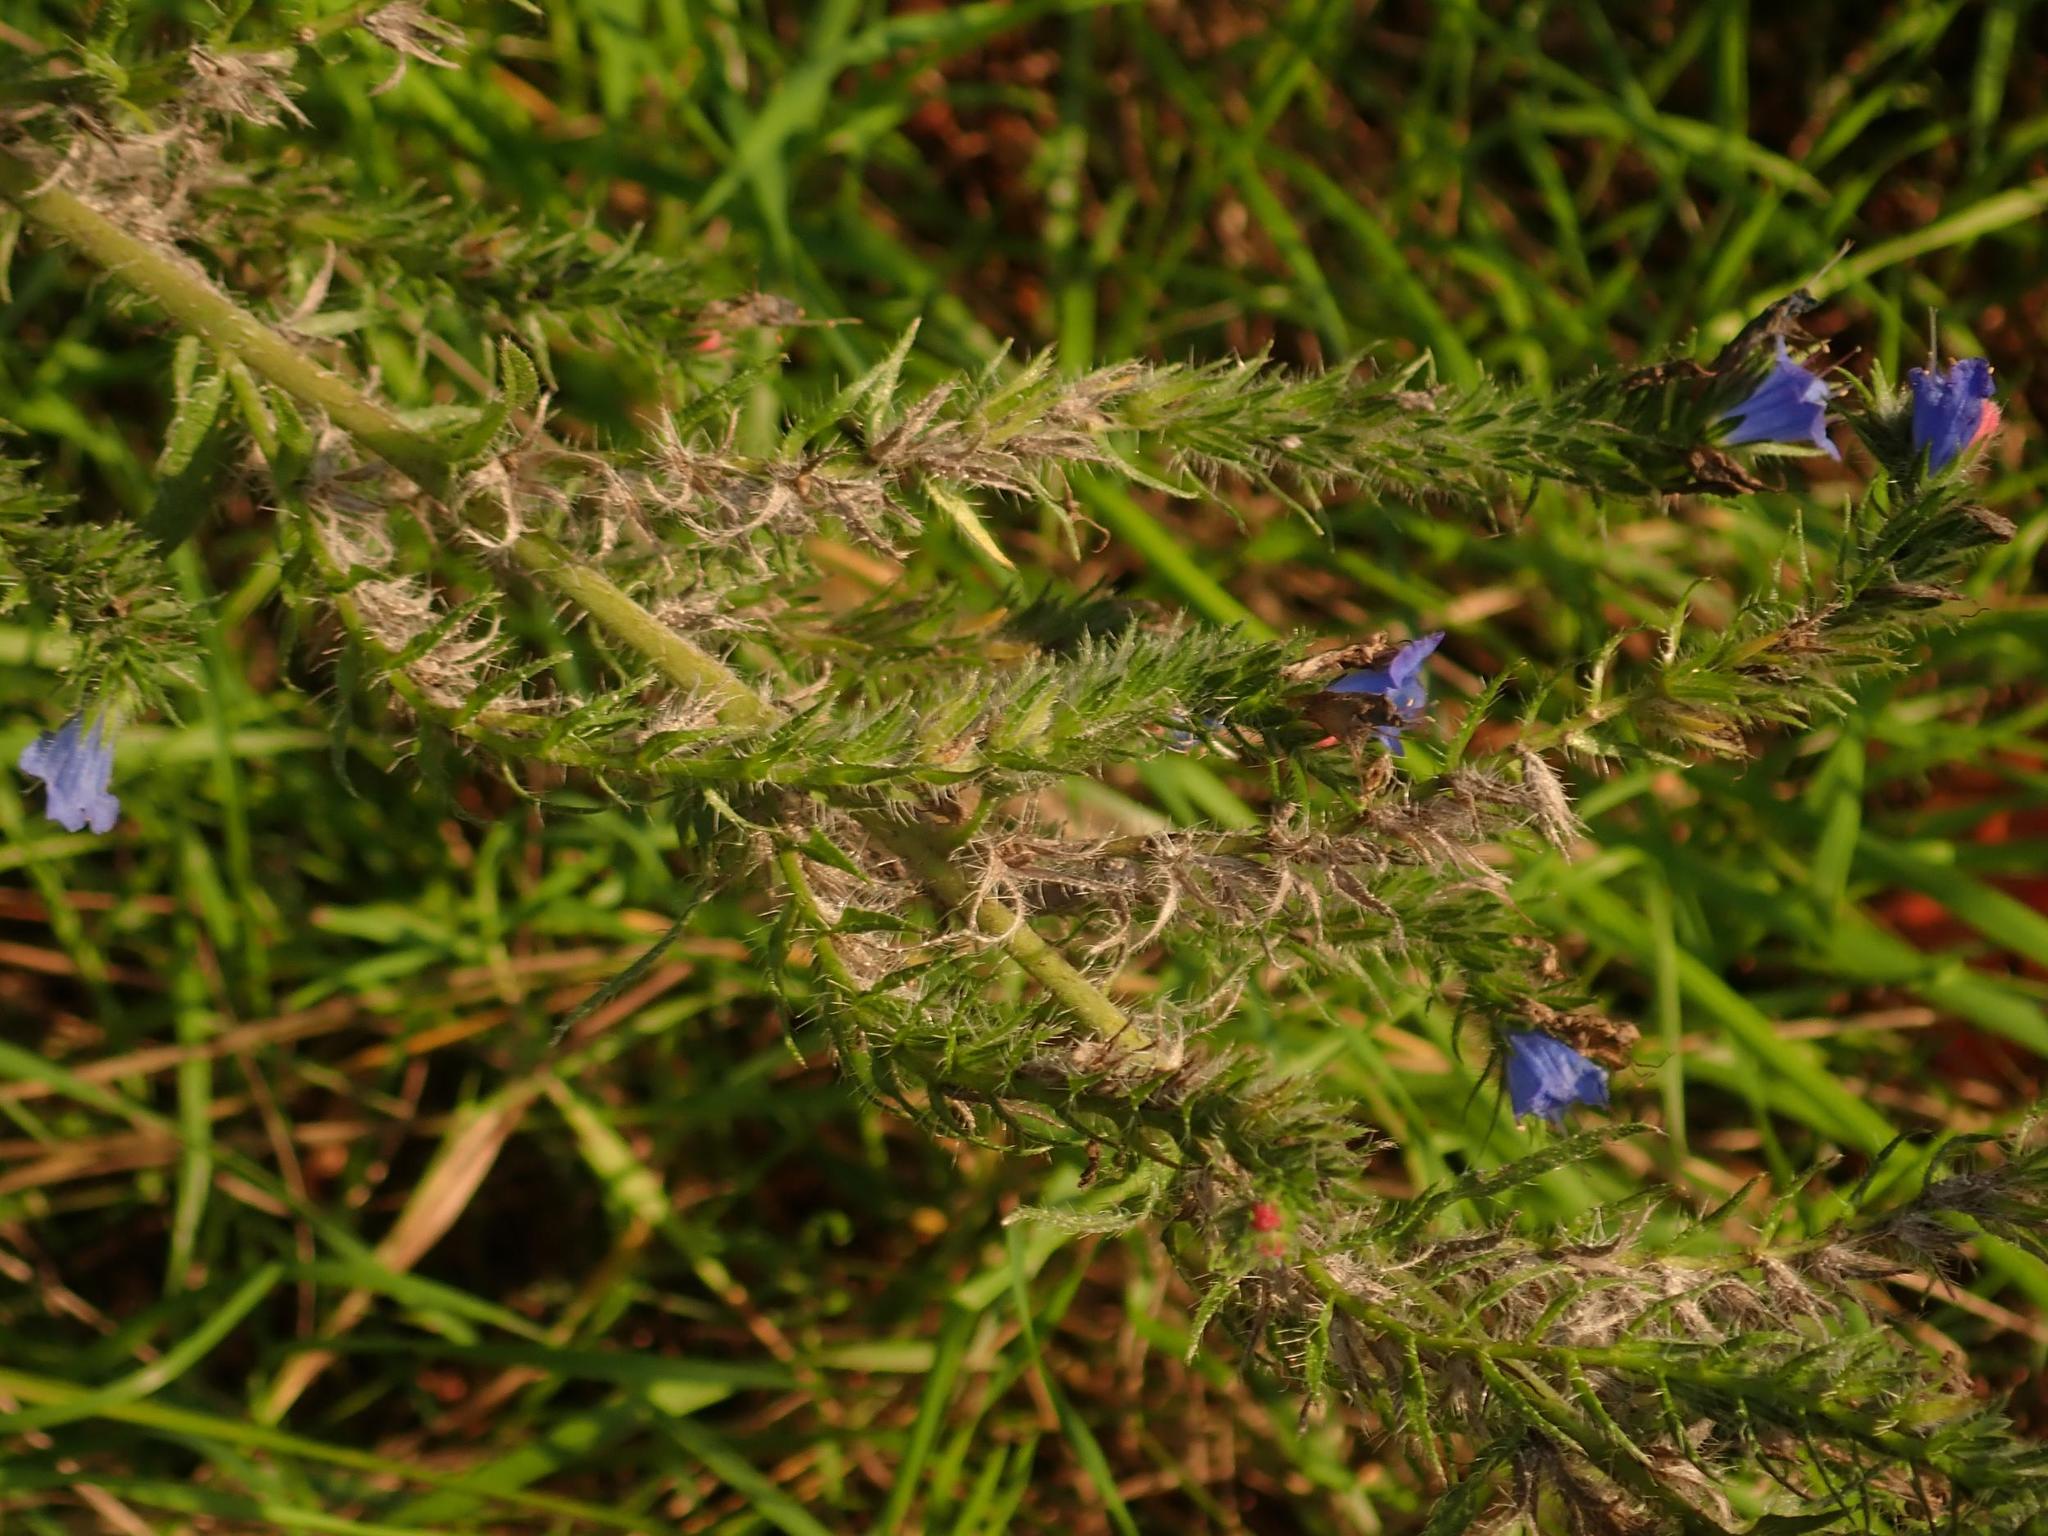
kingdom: Plantae
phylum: Tracheophyta
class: Magnoliopsida
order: Boraginales
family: Boraginaceae
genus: Echium
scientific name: Echium vulgare
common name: Common viper's bugloss
